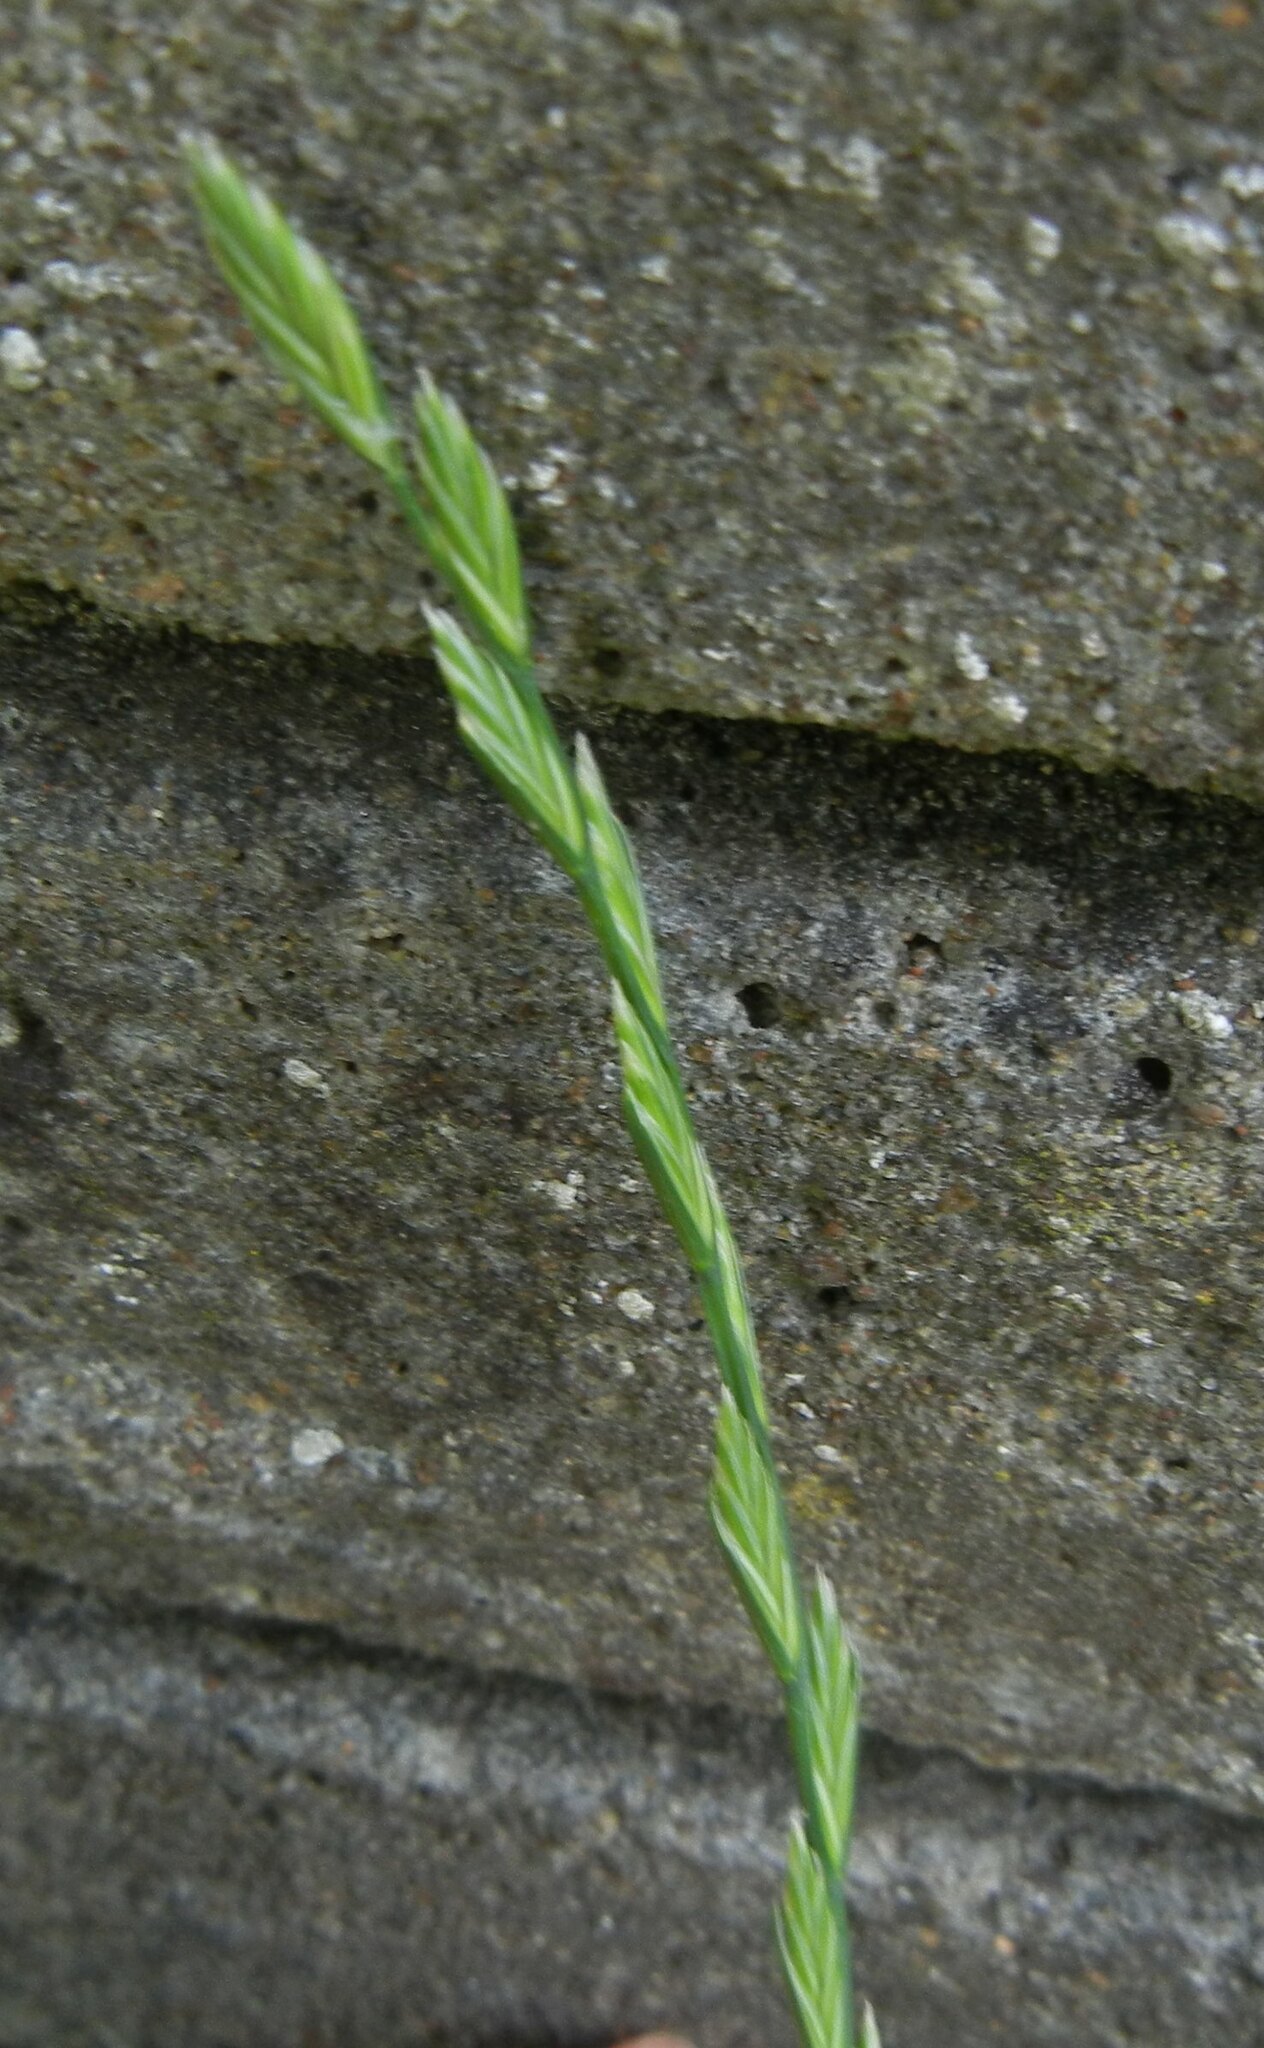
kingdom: Plantae
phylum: Tracheophyta
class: Liliopsida
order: Poales
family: Poaceae
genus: Lolium
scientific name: Lolium perenne
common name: Perennial ryegrass
